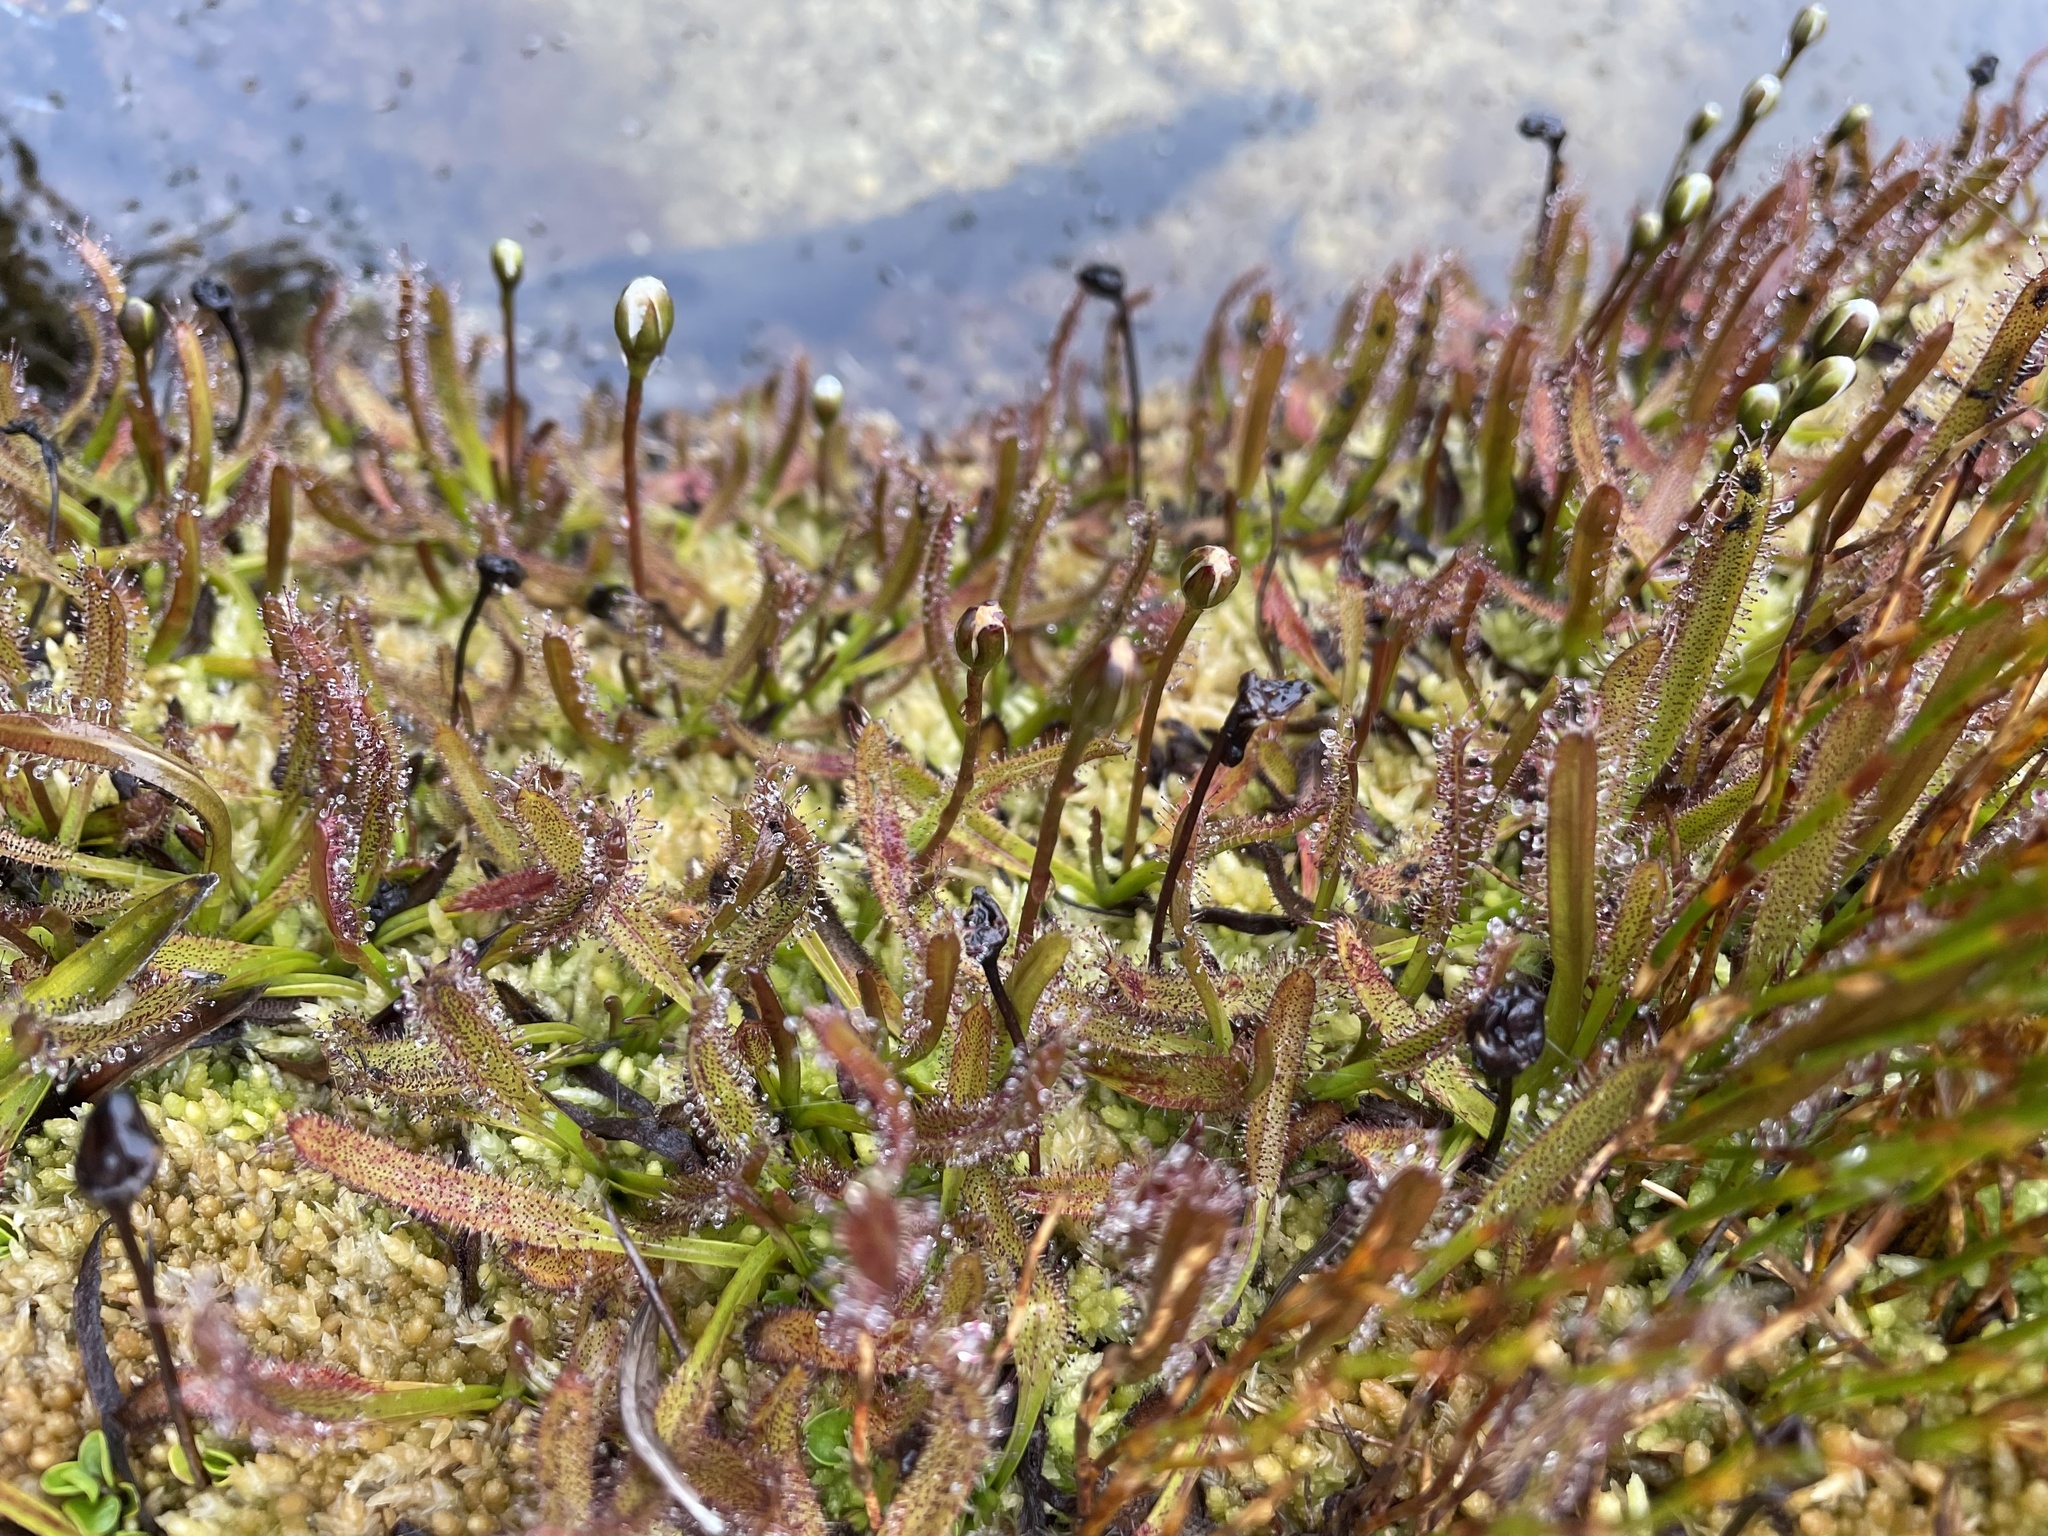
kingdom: Plantae
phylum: Tracheophyta
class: Magnoliopsida
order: Caryophyllales
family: Droseraceae
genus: Drosera
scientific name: Drosera arcturi
